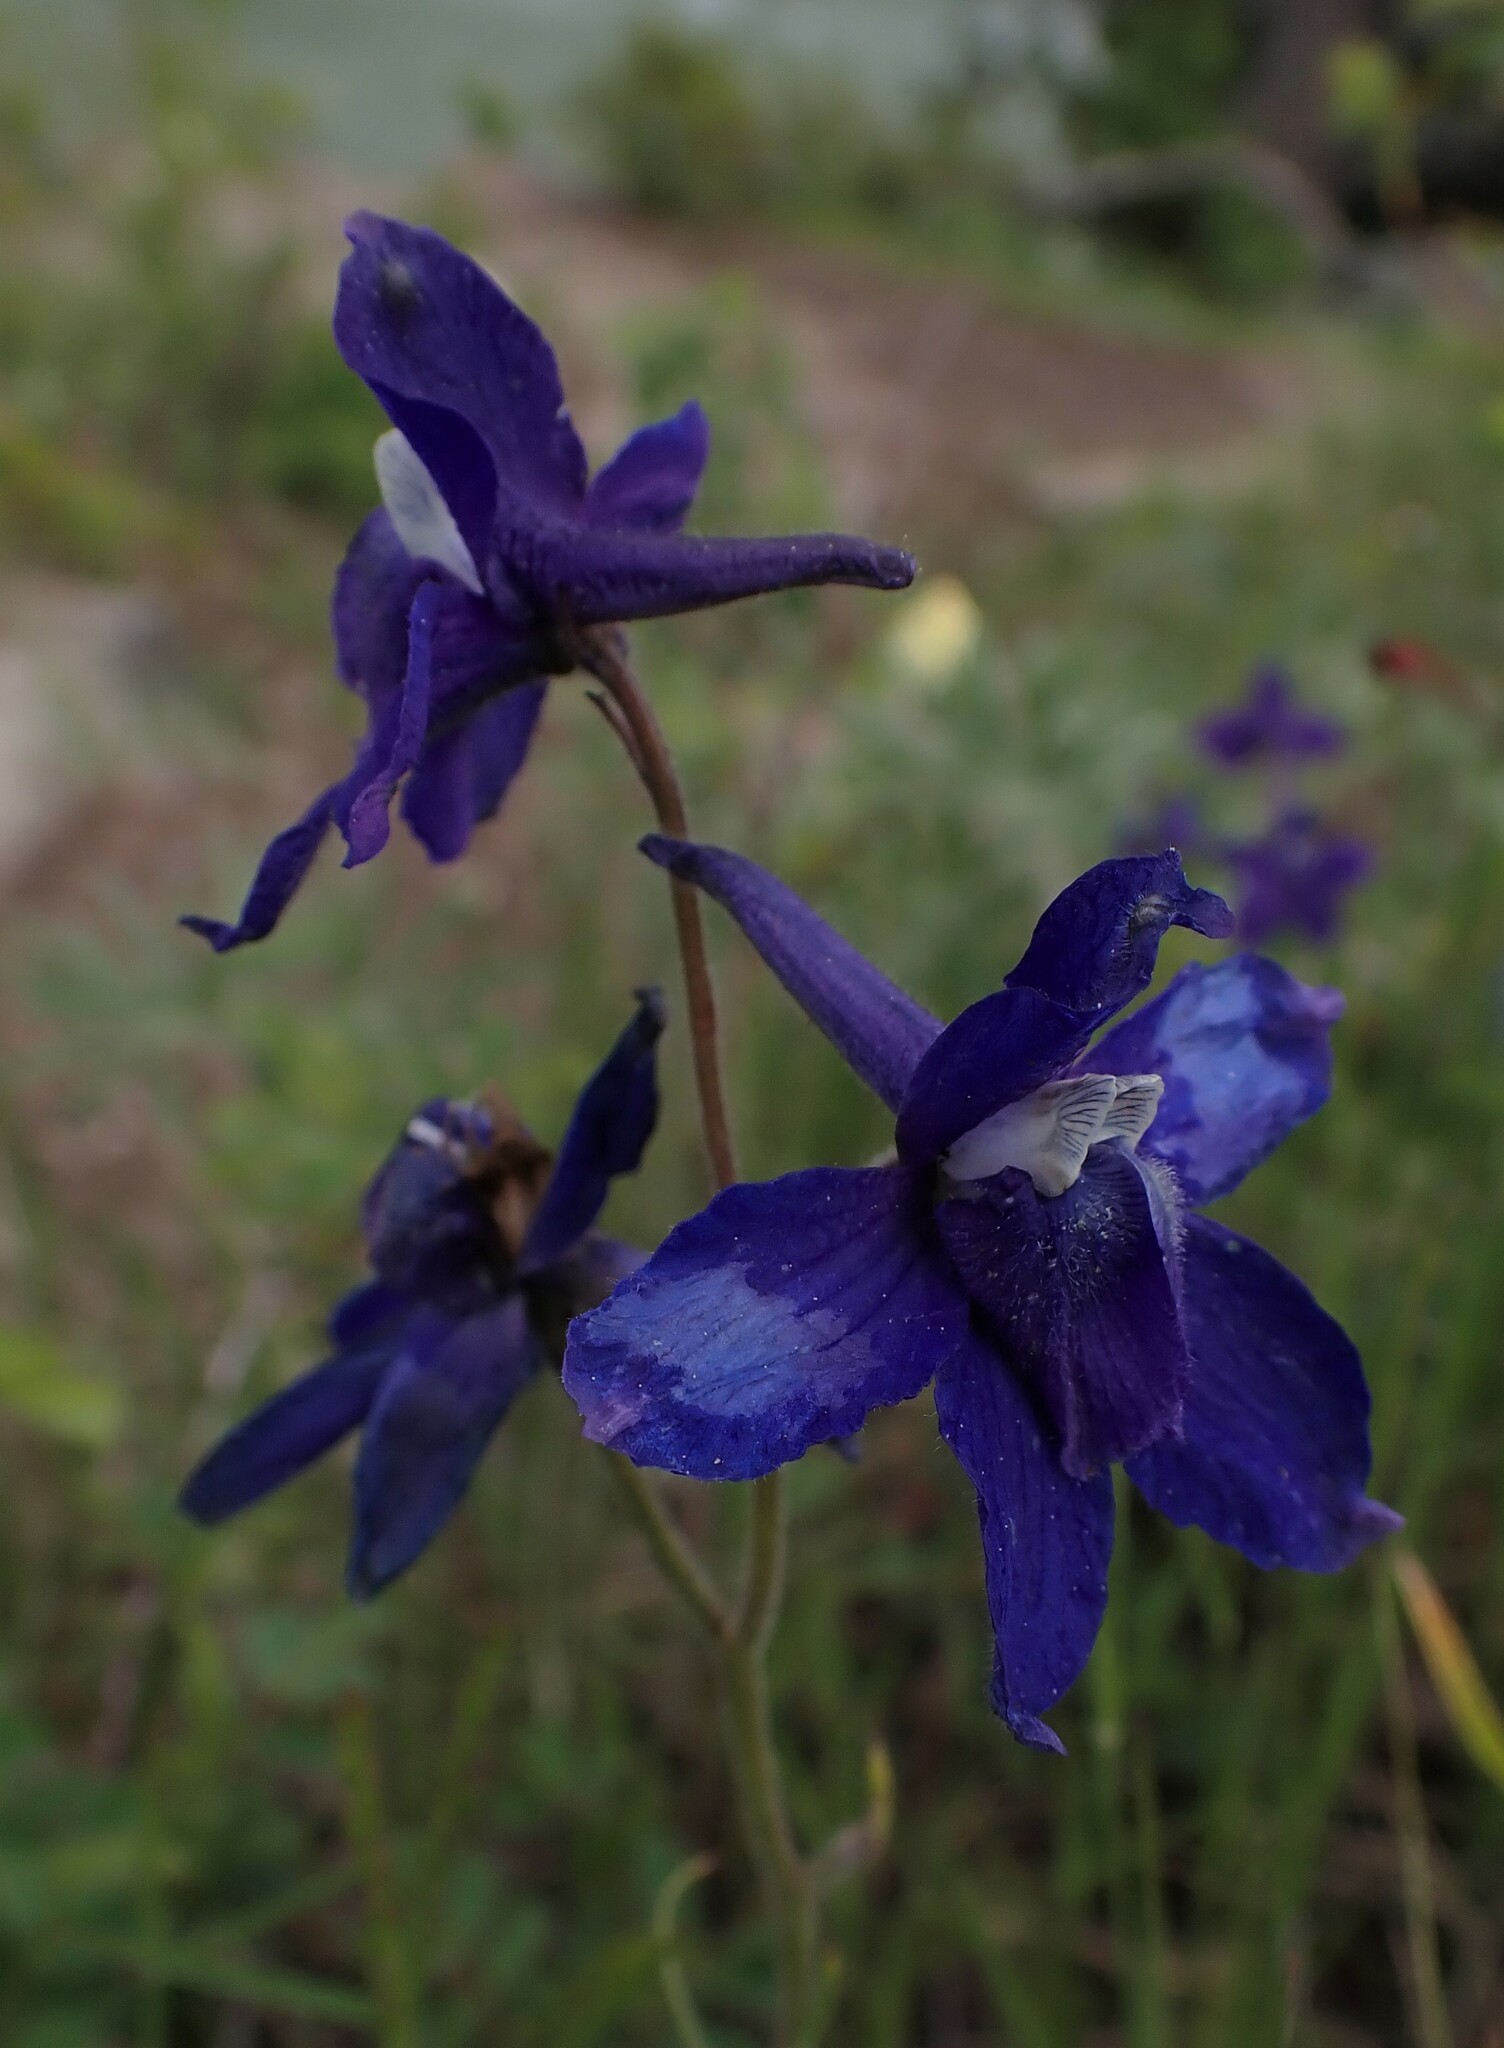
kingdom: Plantae
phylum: Tracheophyta
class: Magnoliopsida
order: Ranunculales
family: Ranunculaceae
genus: Delphinium
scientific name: Delphinium bicolor
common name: Low larkspur
